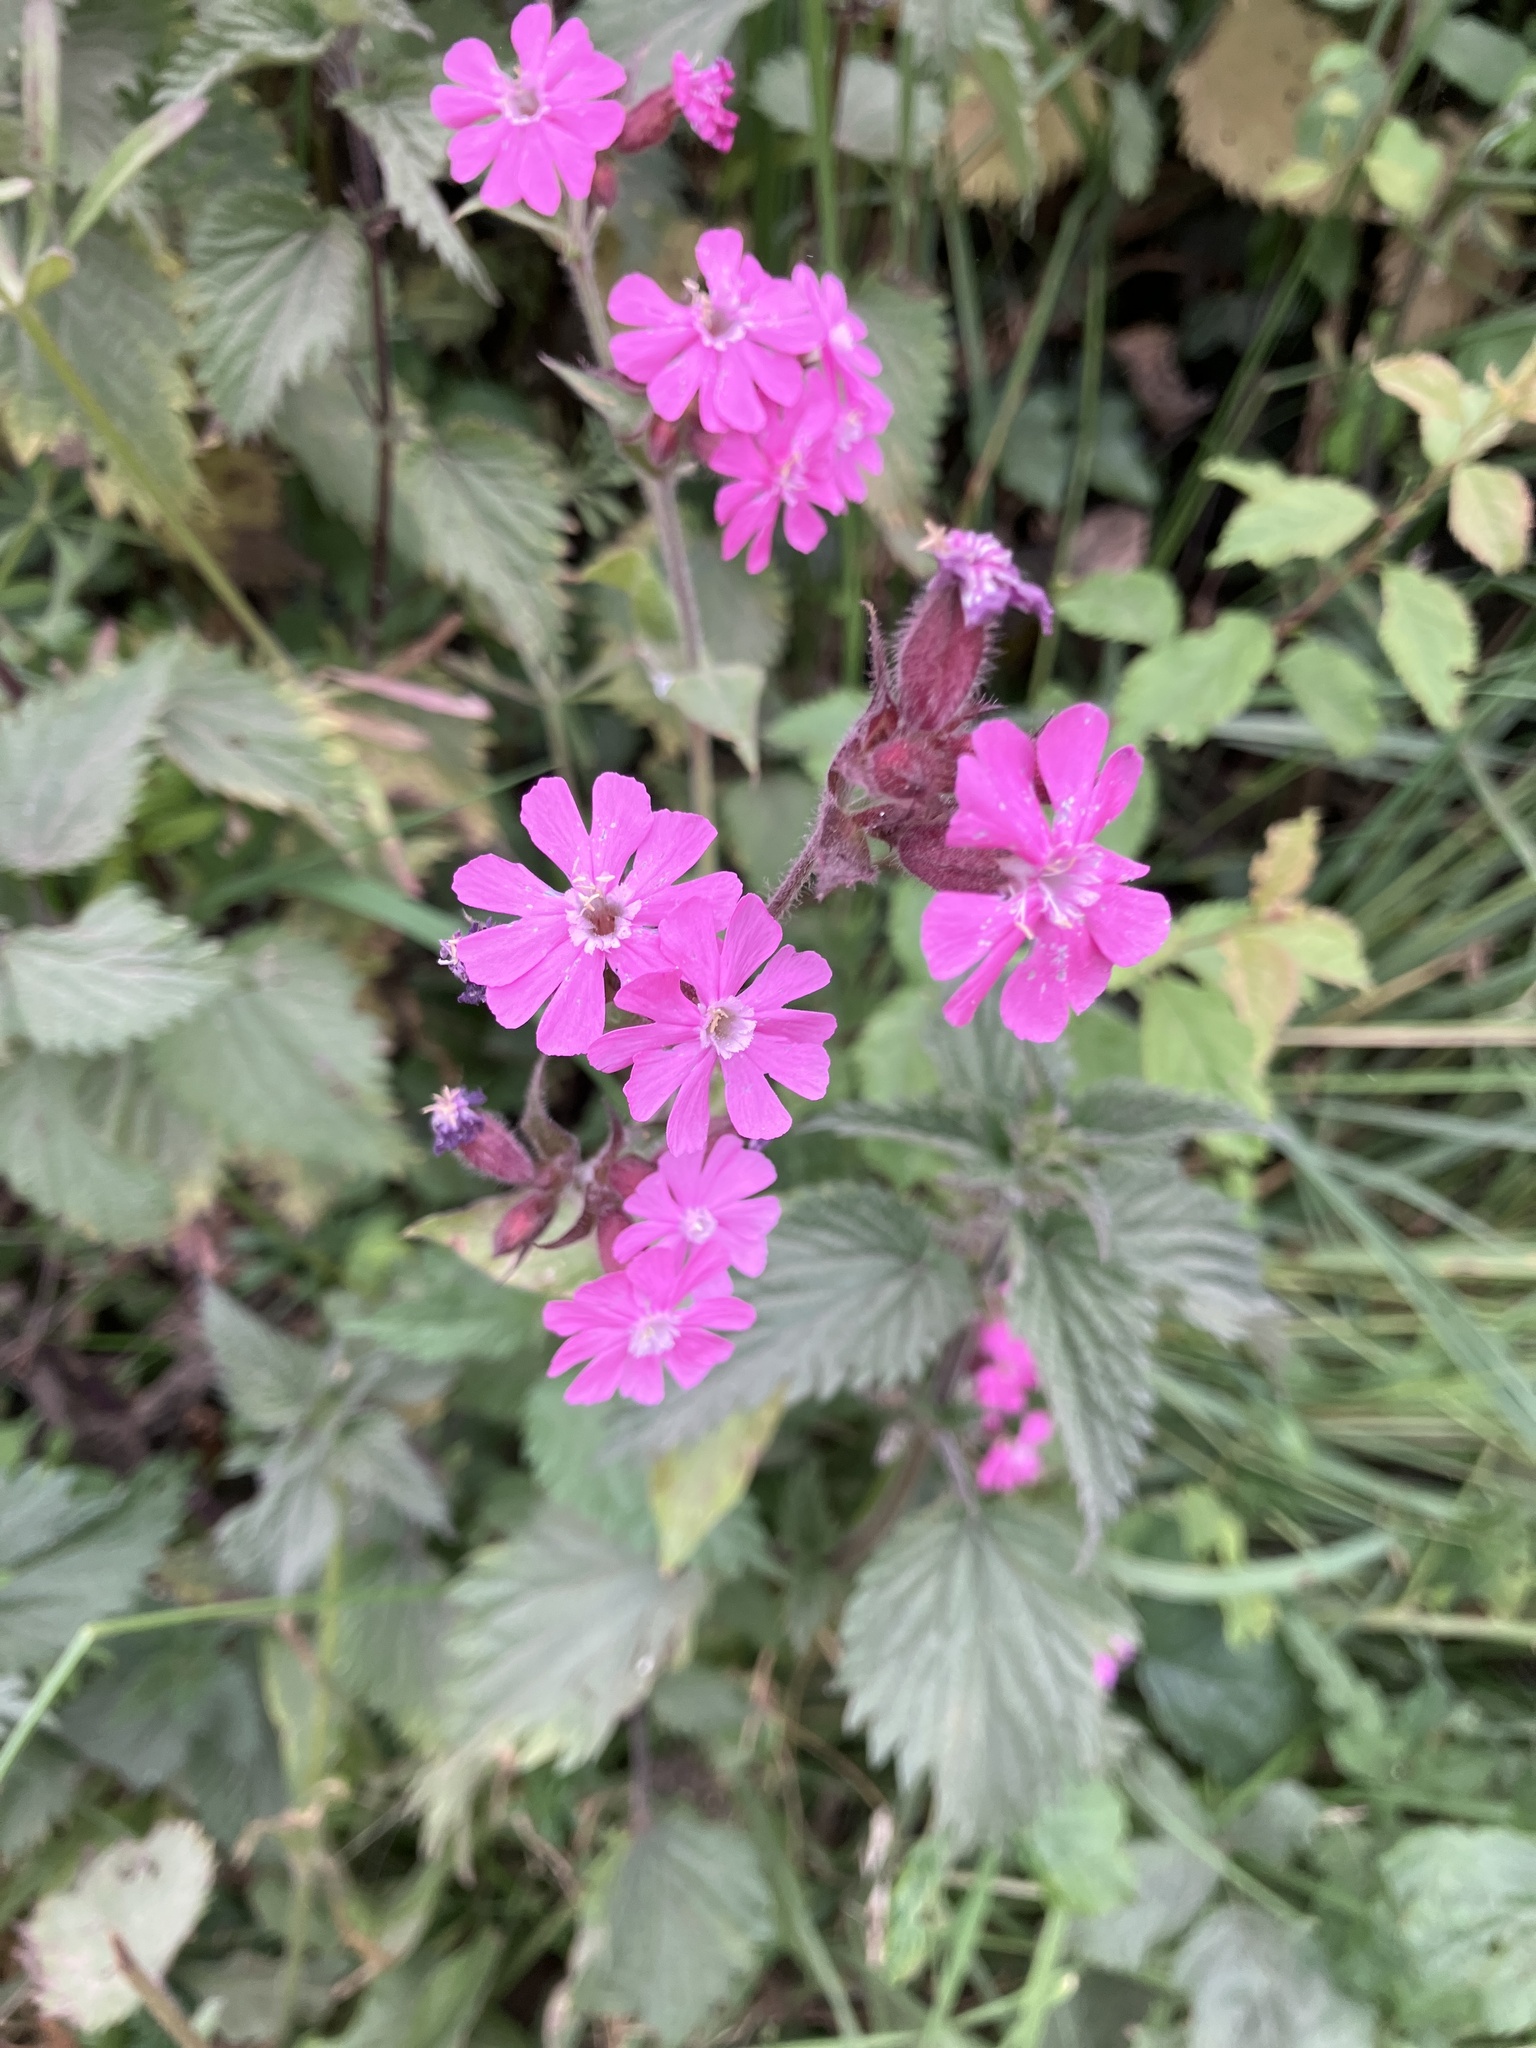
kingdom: Plantae
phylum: Tracheophyta
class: Magnoliopsida
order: Caryophyllales
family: Caryophyllaceae
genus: Silene
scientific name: Silene dioica
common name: Red campion
